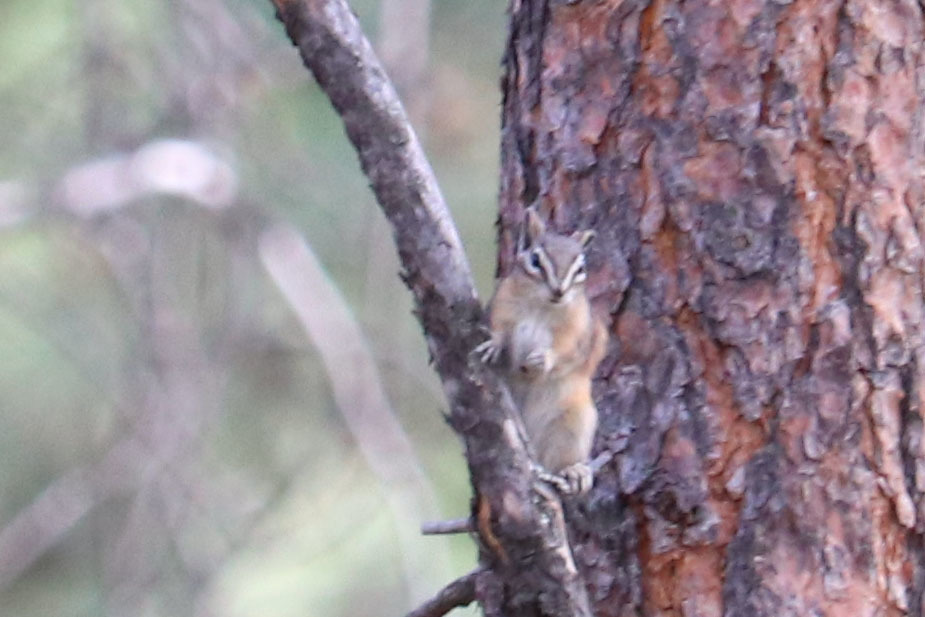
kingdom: Animalia
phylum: Chordata
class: Mammalia
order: Rodentia
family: Sciuridae
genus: Tamias
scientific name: Tamias amoenus
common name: Yellow-pine chipmunk
